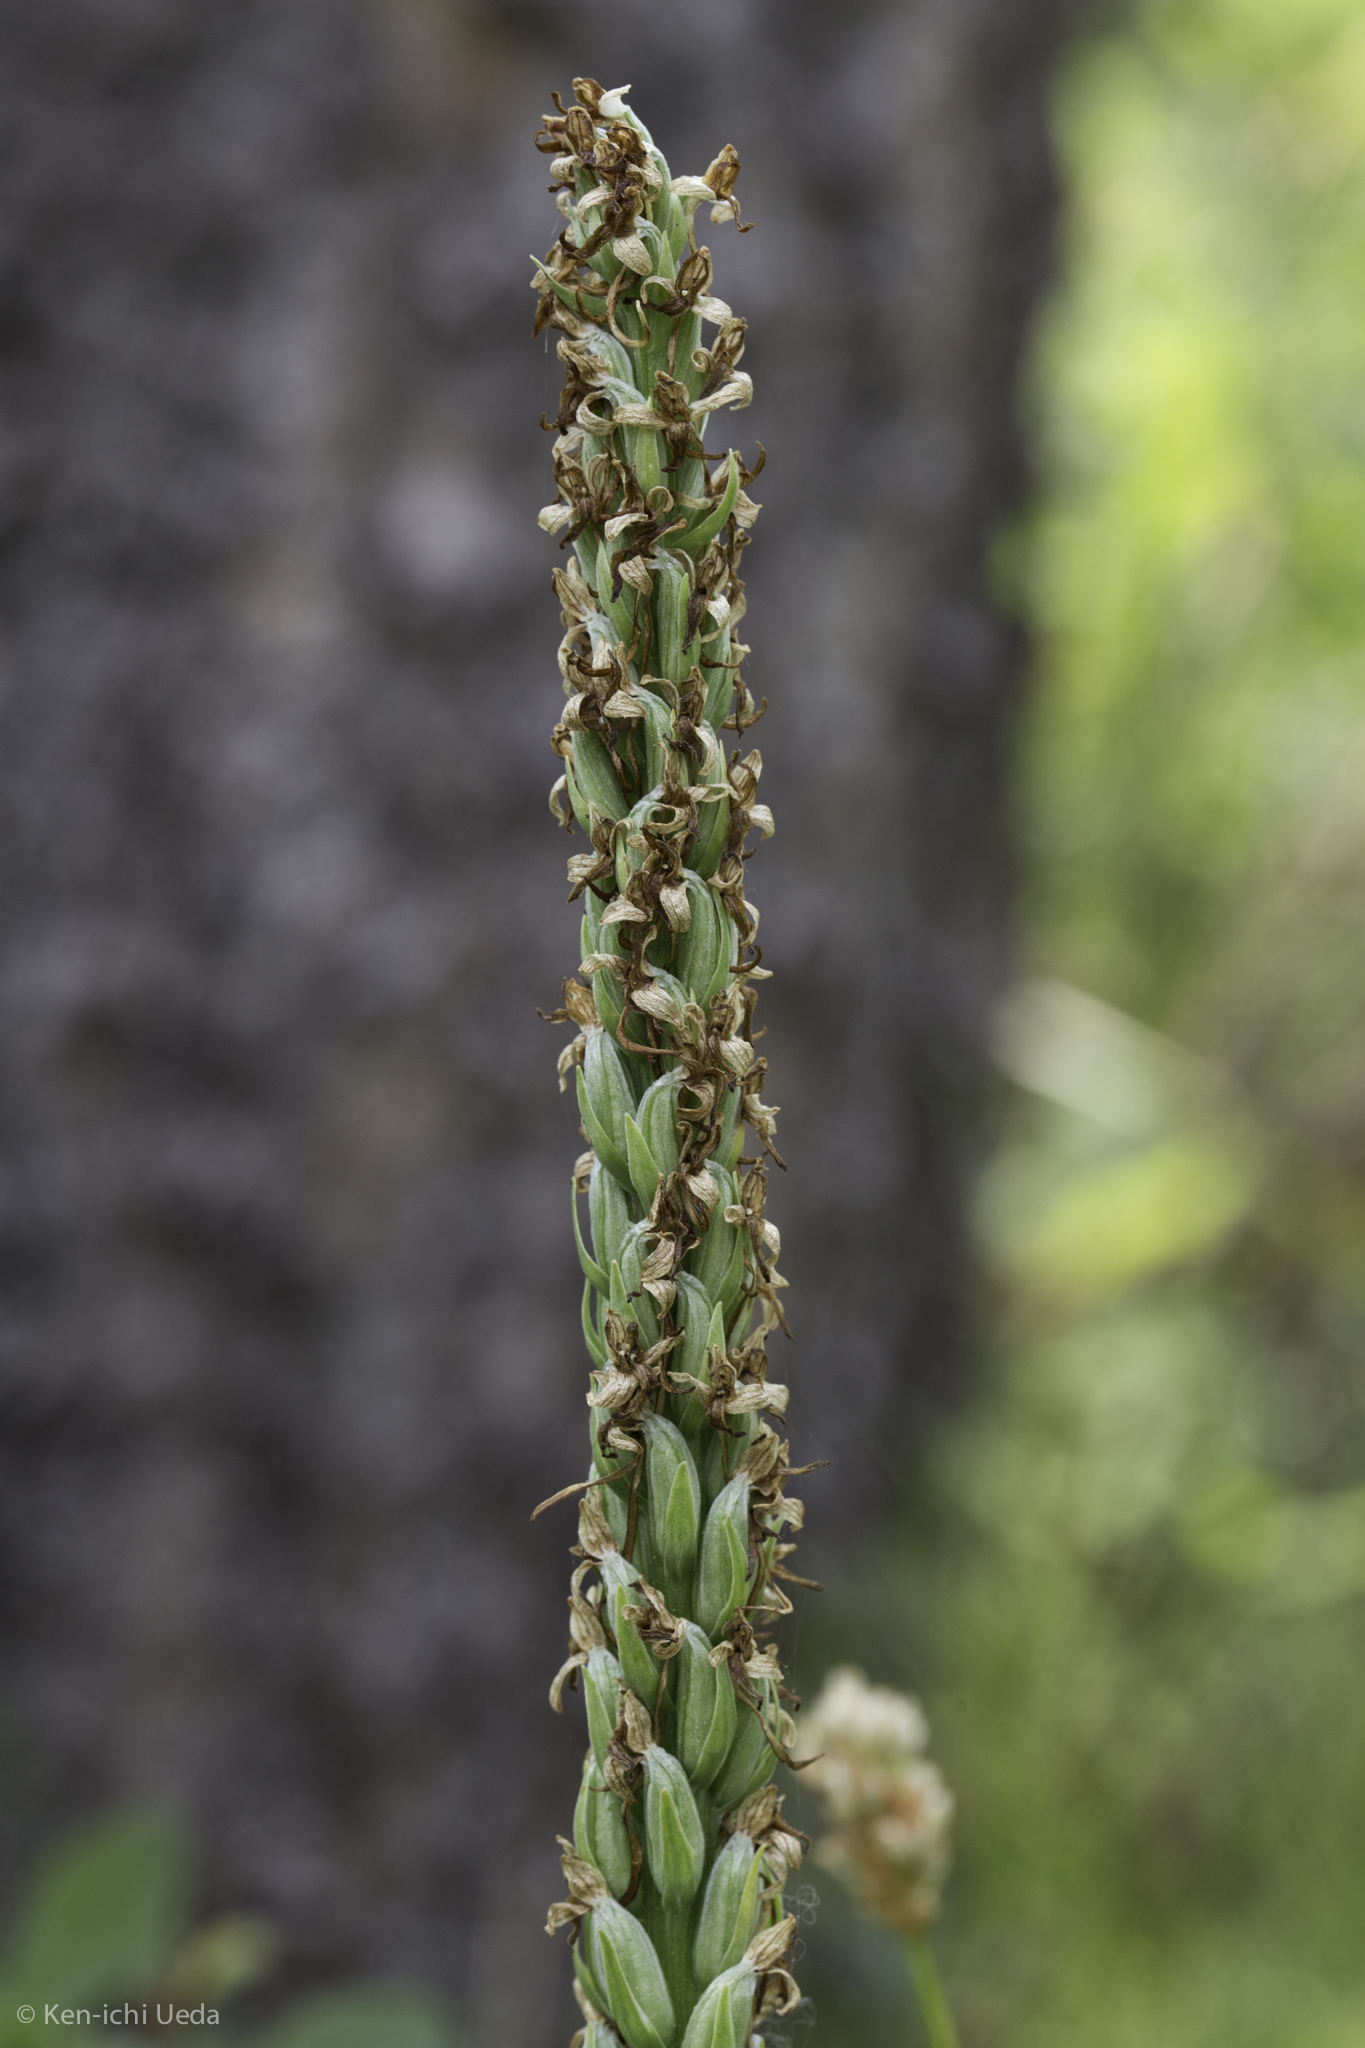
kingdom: Plantae
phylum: Tracheophyta
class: Liliopsida
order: Asparagales
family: Orchidaceae
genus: Platanthera
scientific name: Platanthera dilatata
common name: Bog candles
